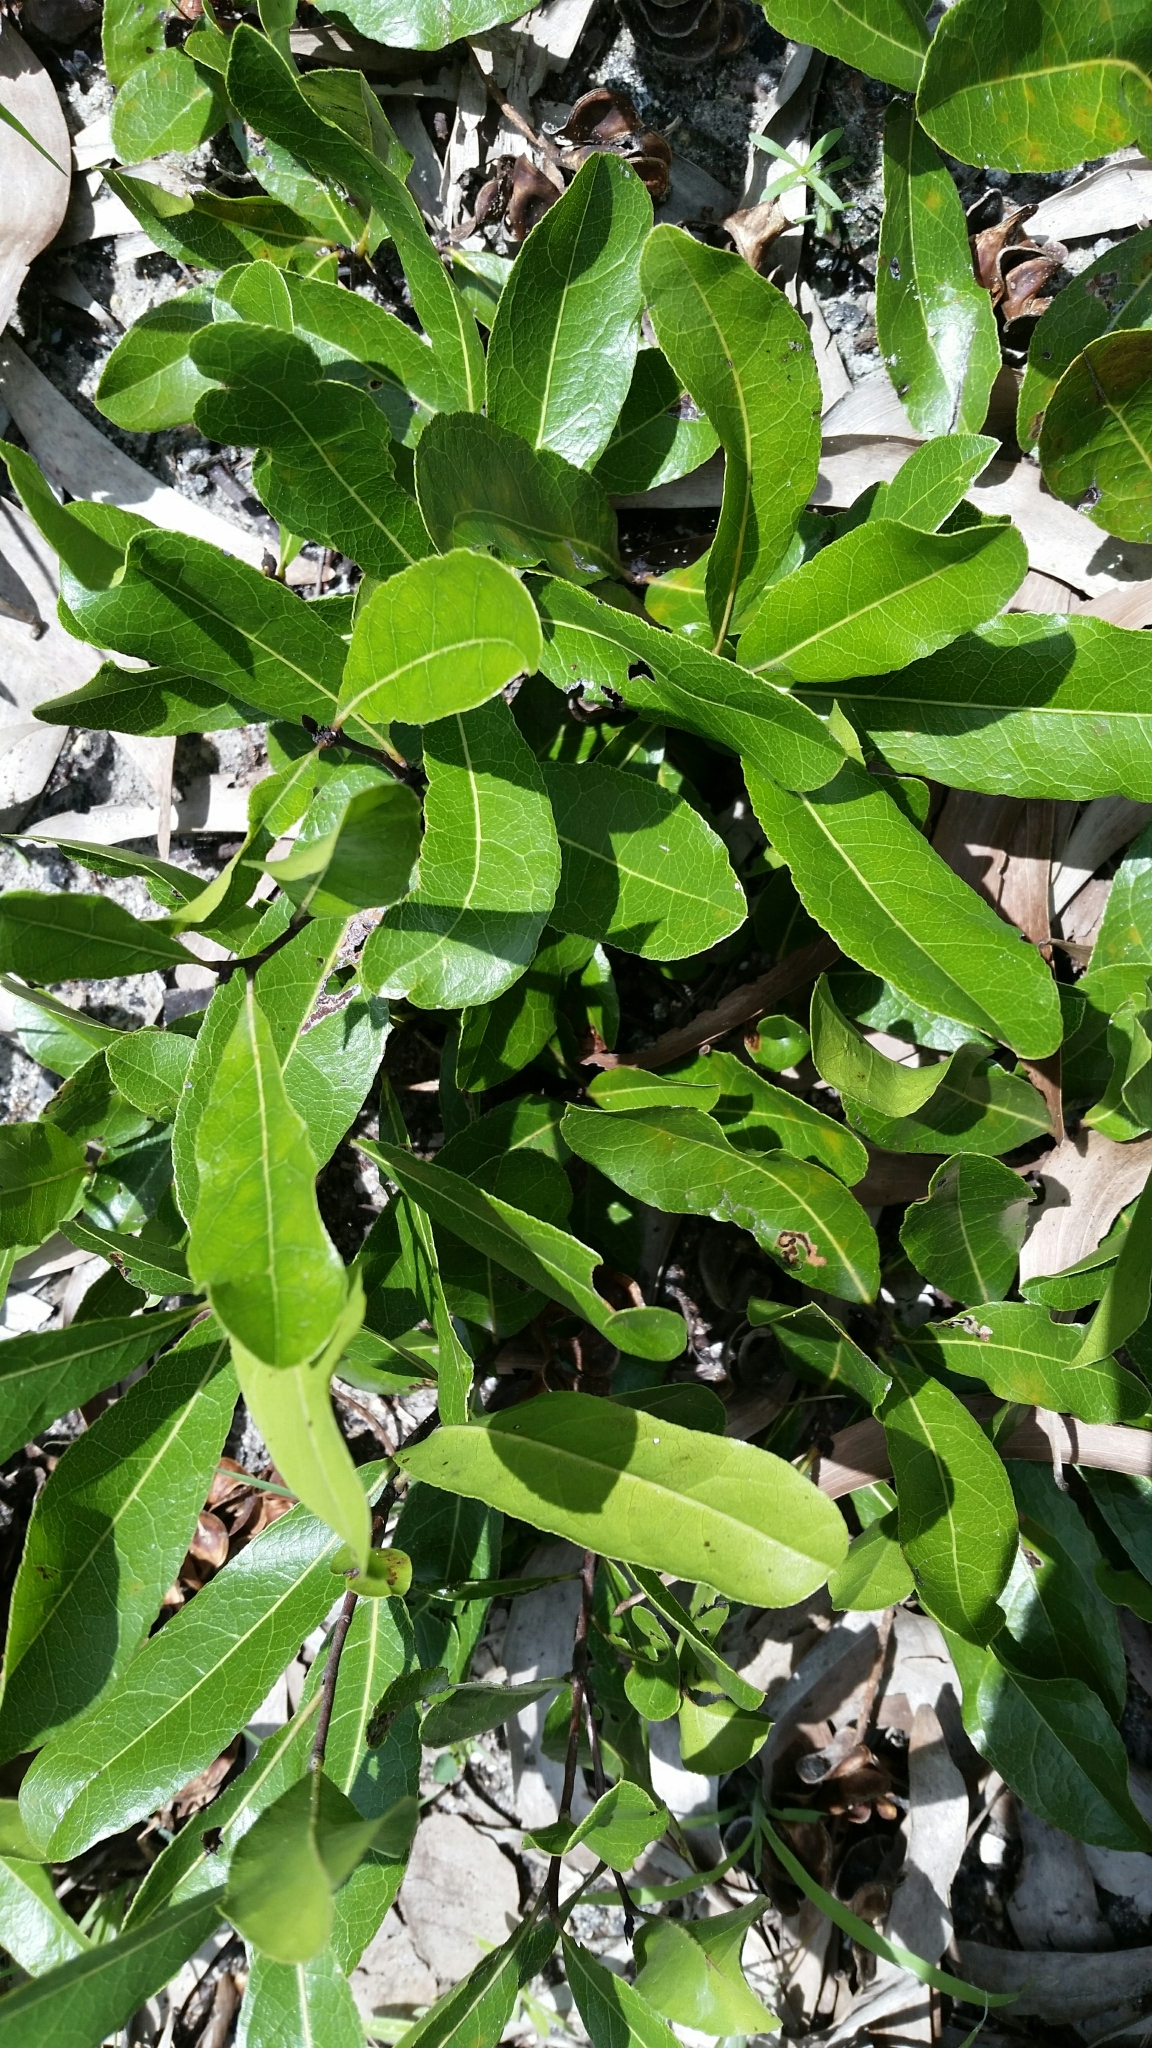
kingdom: Plantae
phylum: Tracheophyta
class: Magnoliopsida
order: Malpighiales
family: Chrysobalanaceae
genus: Geobalanus
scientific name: Geobalanus oblongifolius
